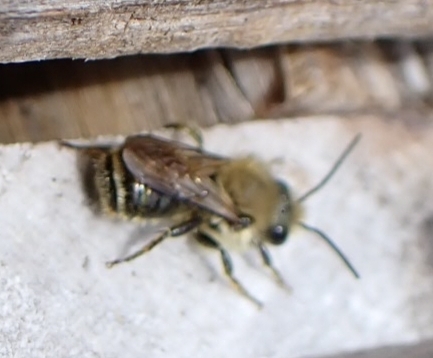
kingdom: Animalia
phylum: Arthropoda
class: Insecta
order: Hymenoptera
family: Megachilidae
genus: Osmia
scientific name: Osmia caerulescens
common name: Blue mason bee
